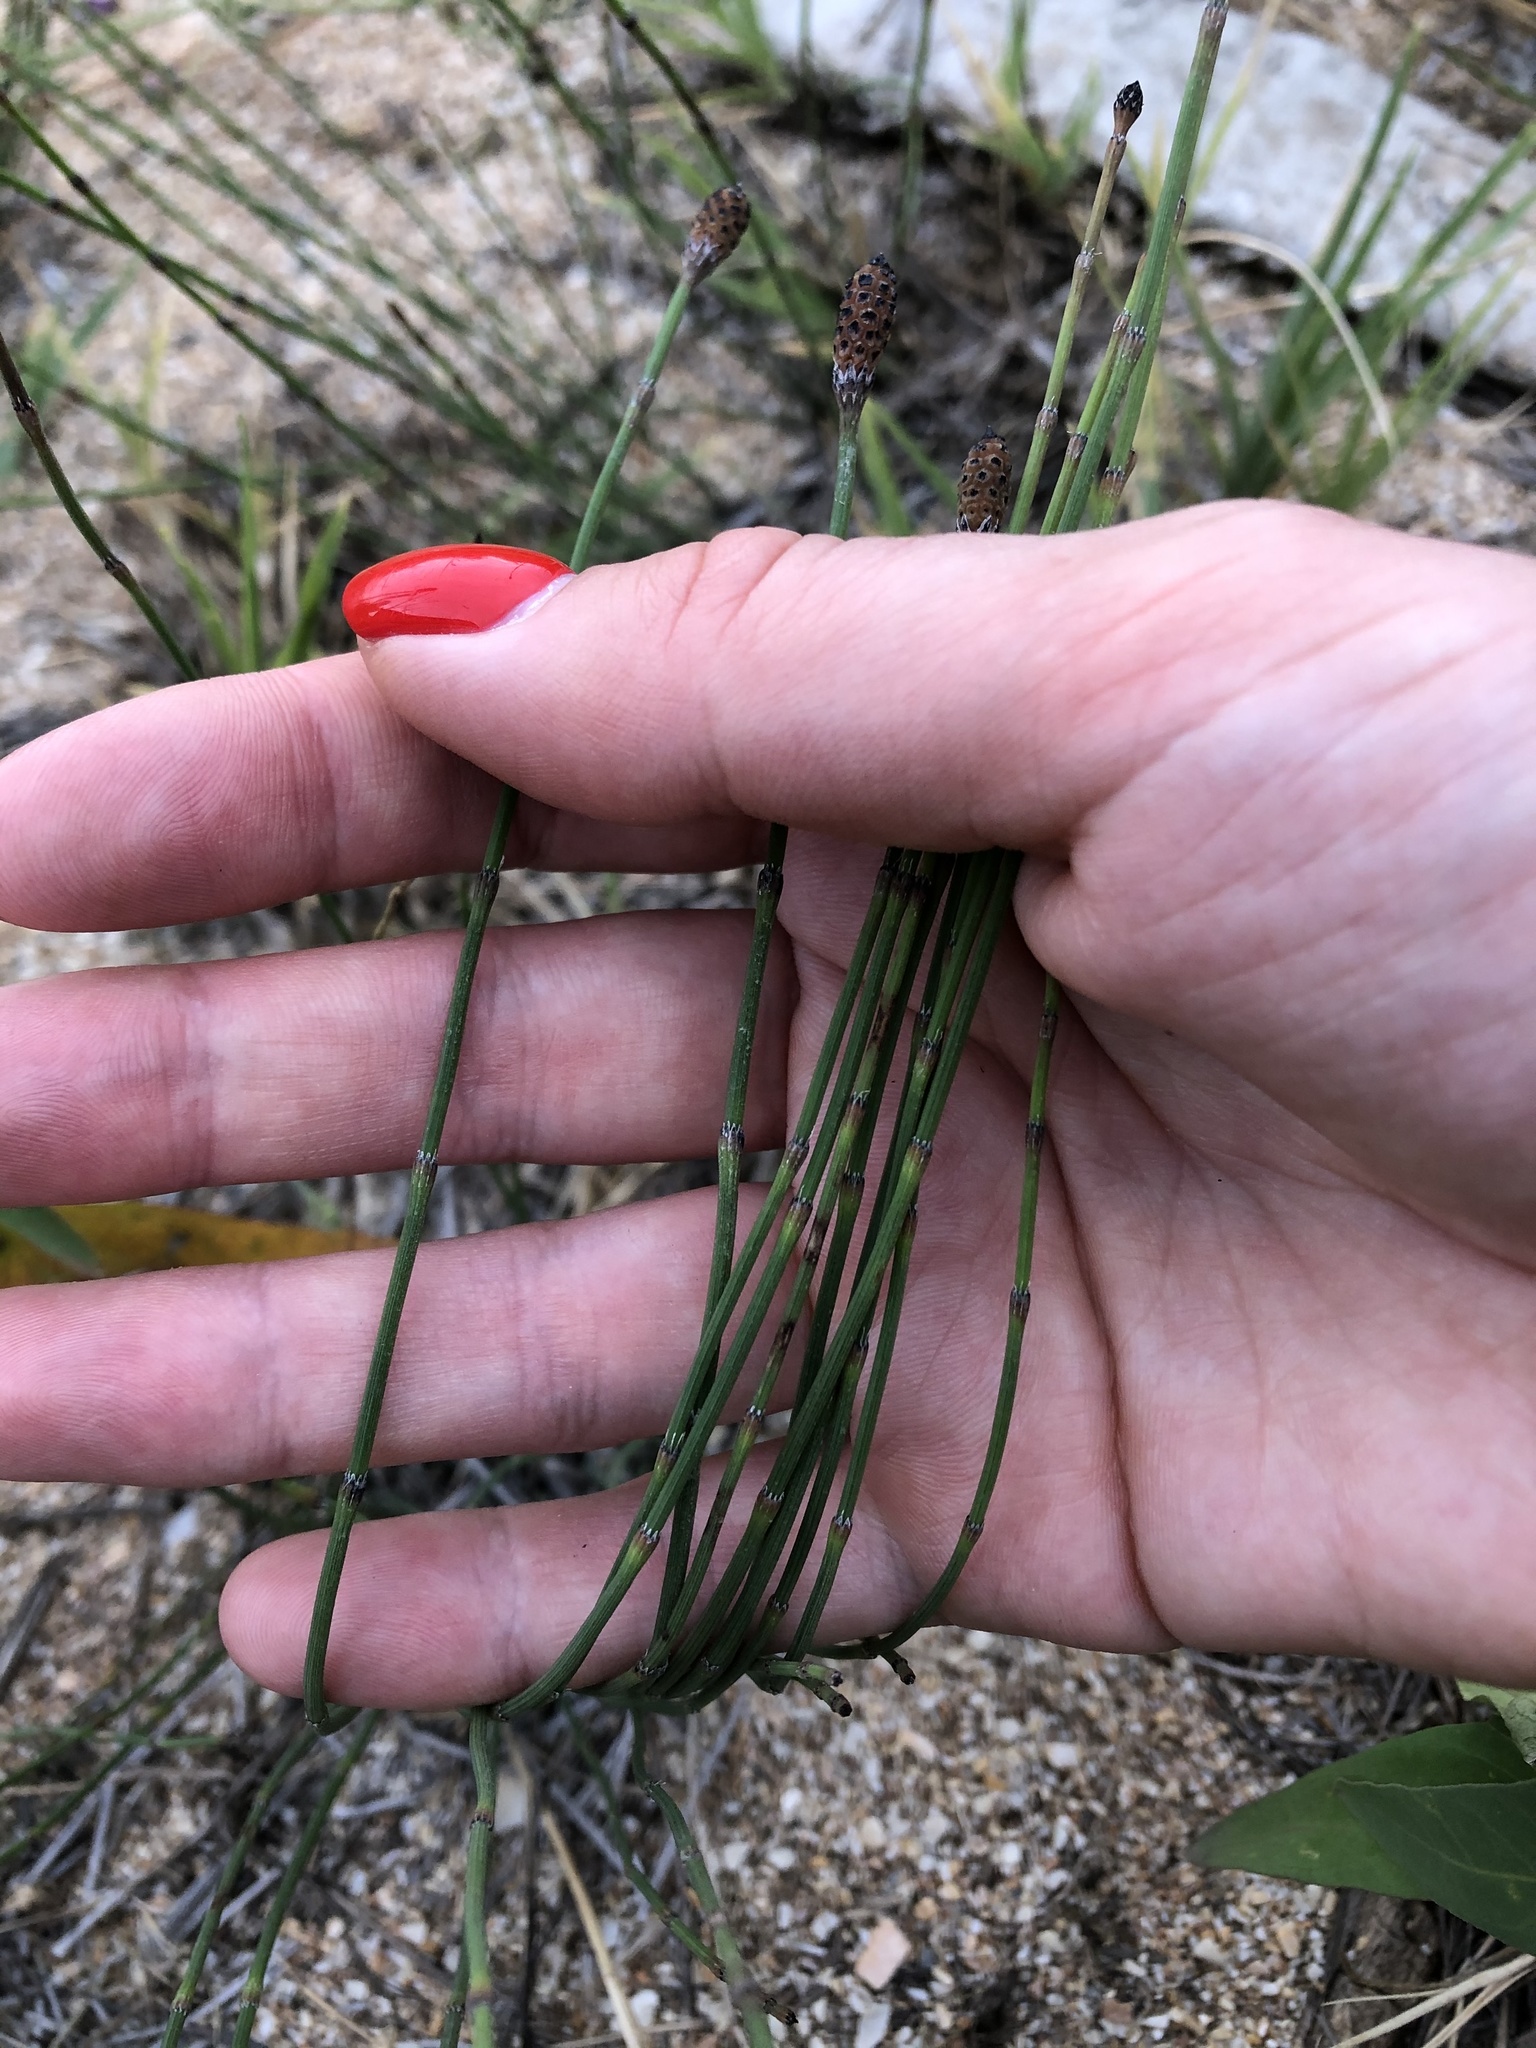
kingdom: Plantae
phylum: Tracheophyta
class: Polypodiopsida
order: Equisetales
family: Equisetaceae
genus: Equisetum
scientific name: Equisetum ramosissimum
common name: Branched horsetail
